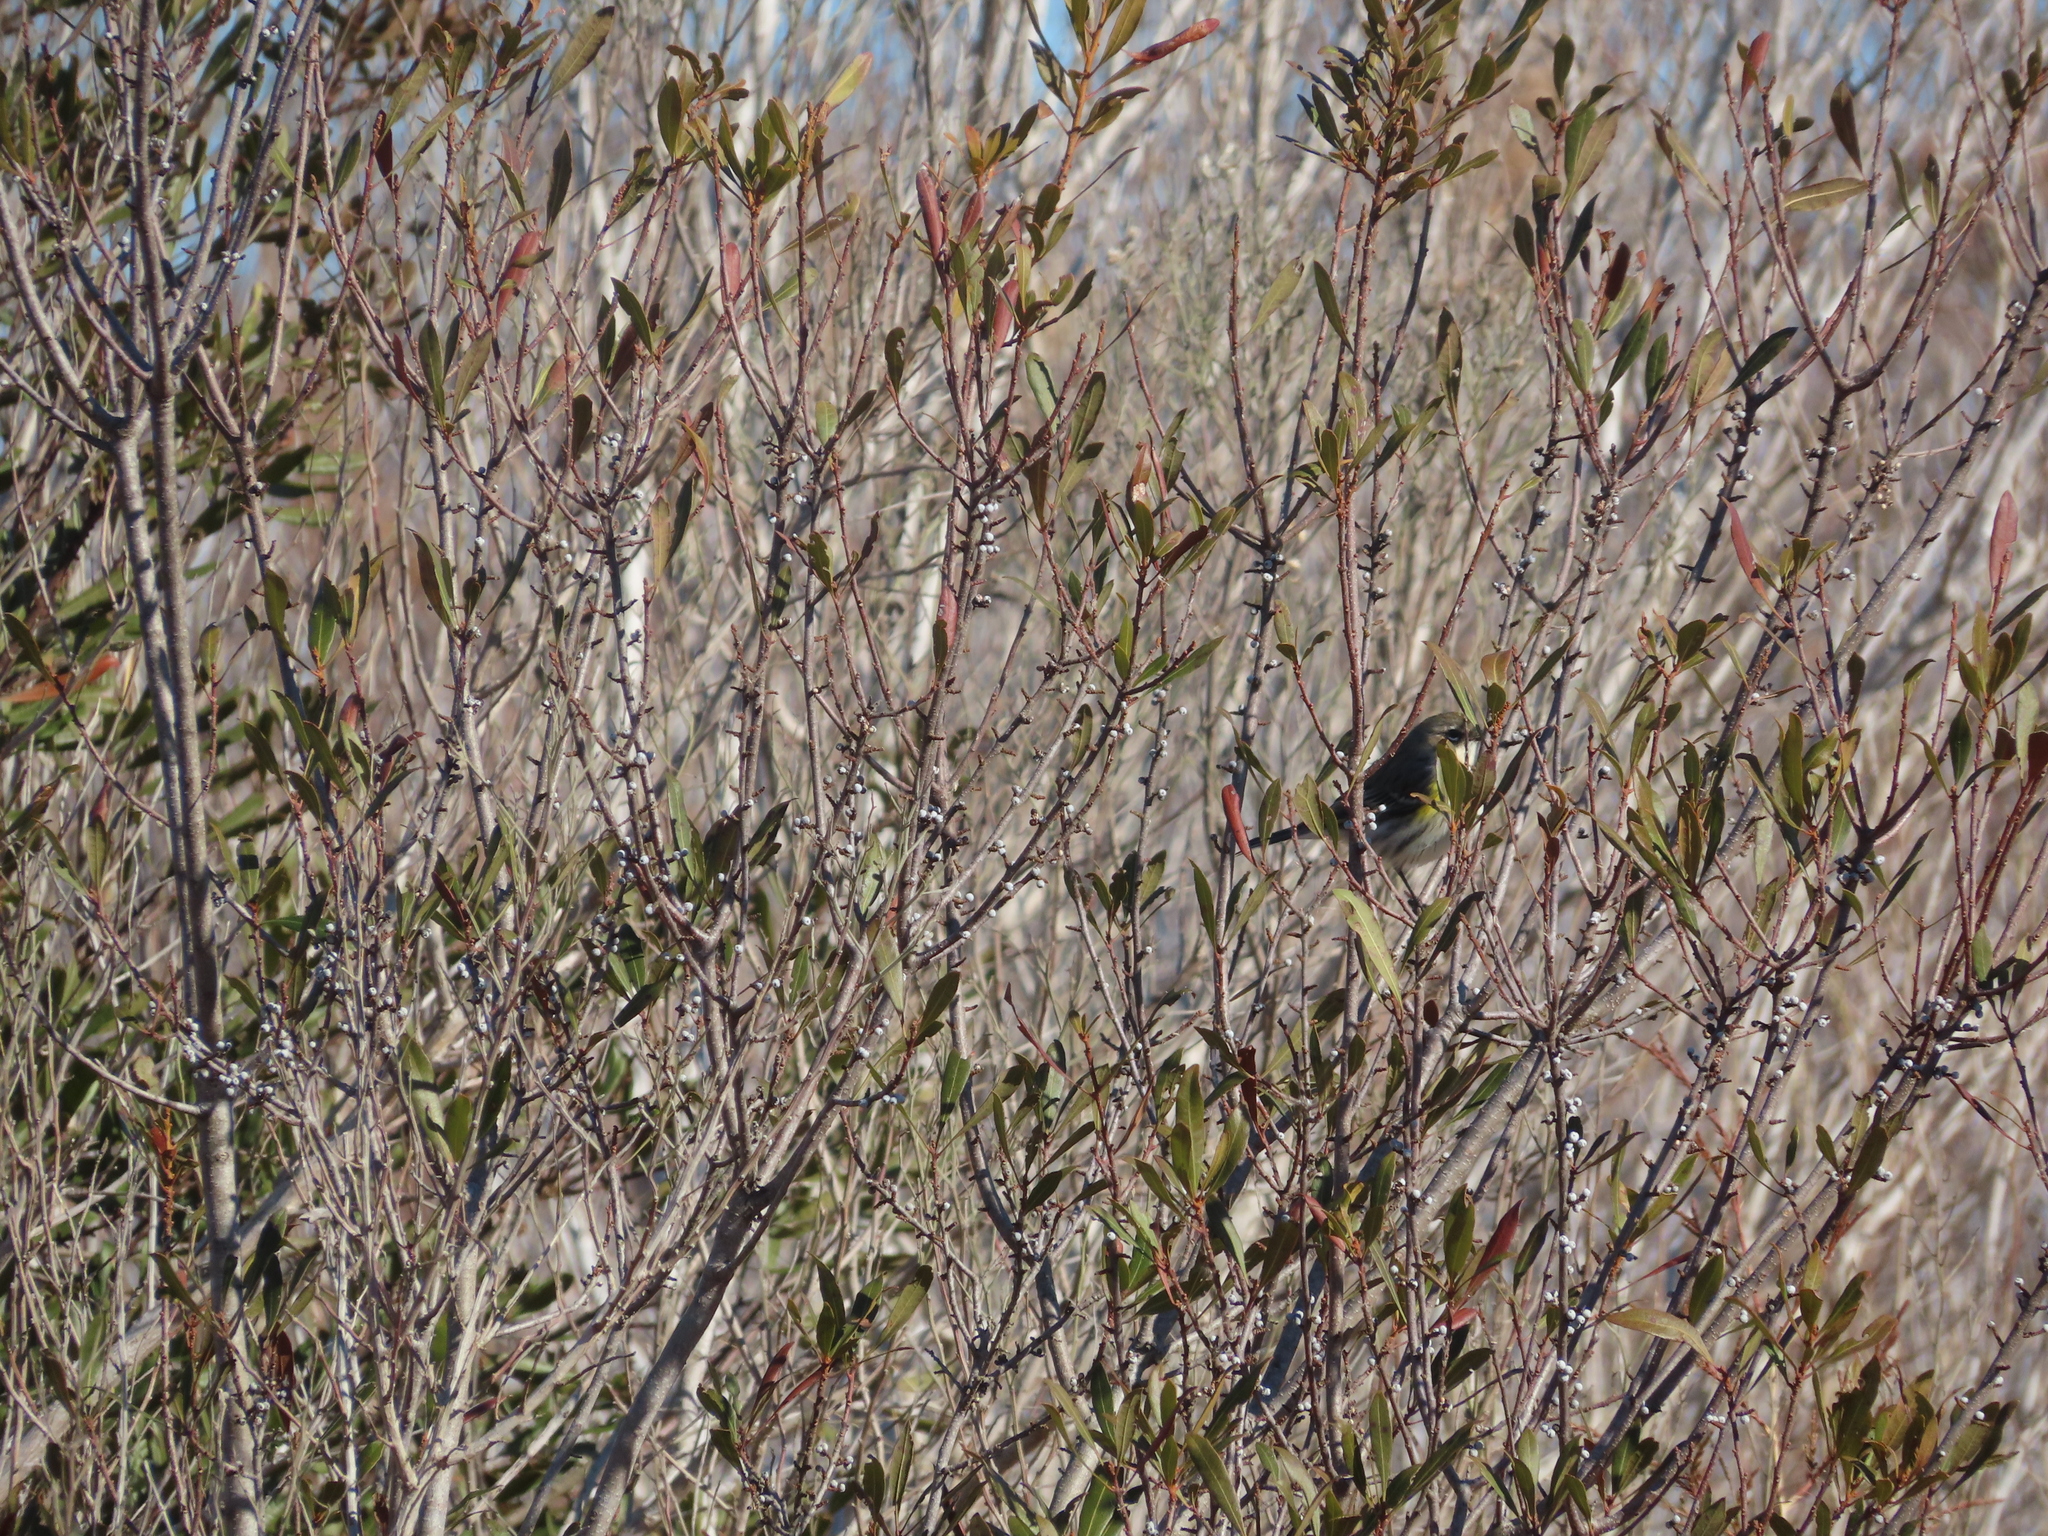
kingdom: Animalia
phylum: Chordata
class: Aves
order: Passeriformes
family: Parulidae
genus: Setophaga
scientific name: Setophaga coronata
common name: Myrtle warbler
